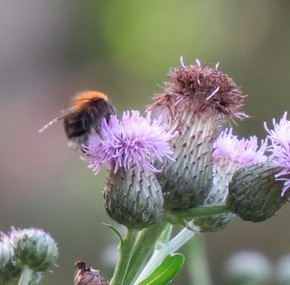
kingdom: Animalia
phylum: Arthropoda
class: Insecta
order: Hymenoptera
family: Apidae
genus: Bombus
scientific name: Bombus hypnorum
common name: New garden bumblebee
